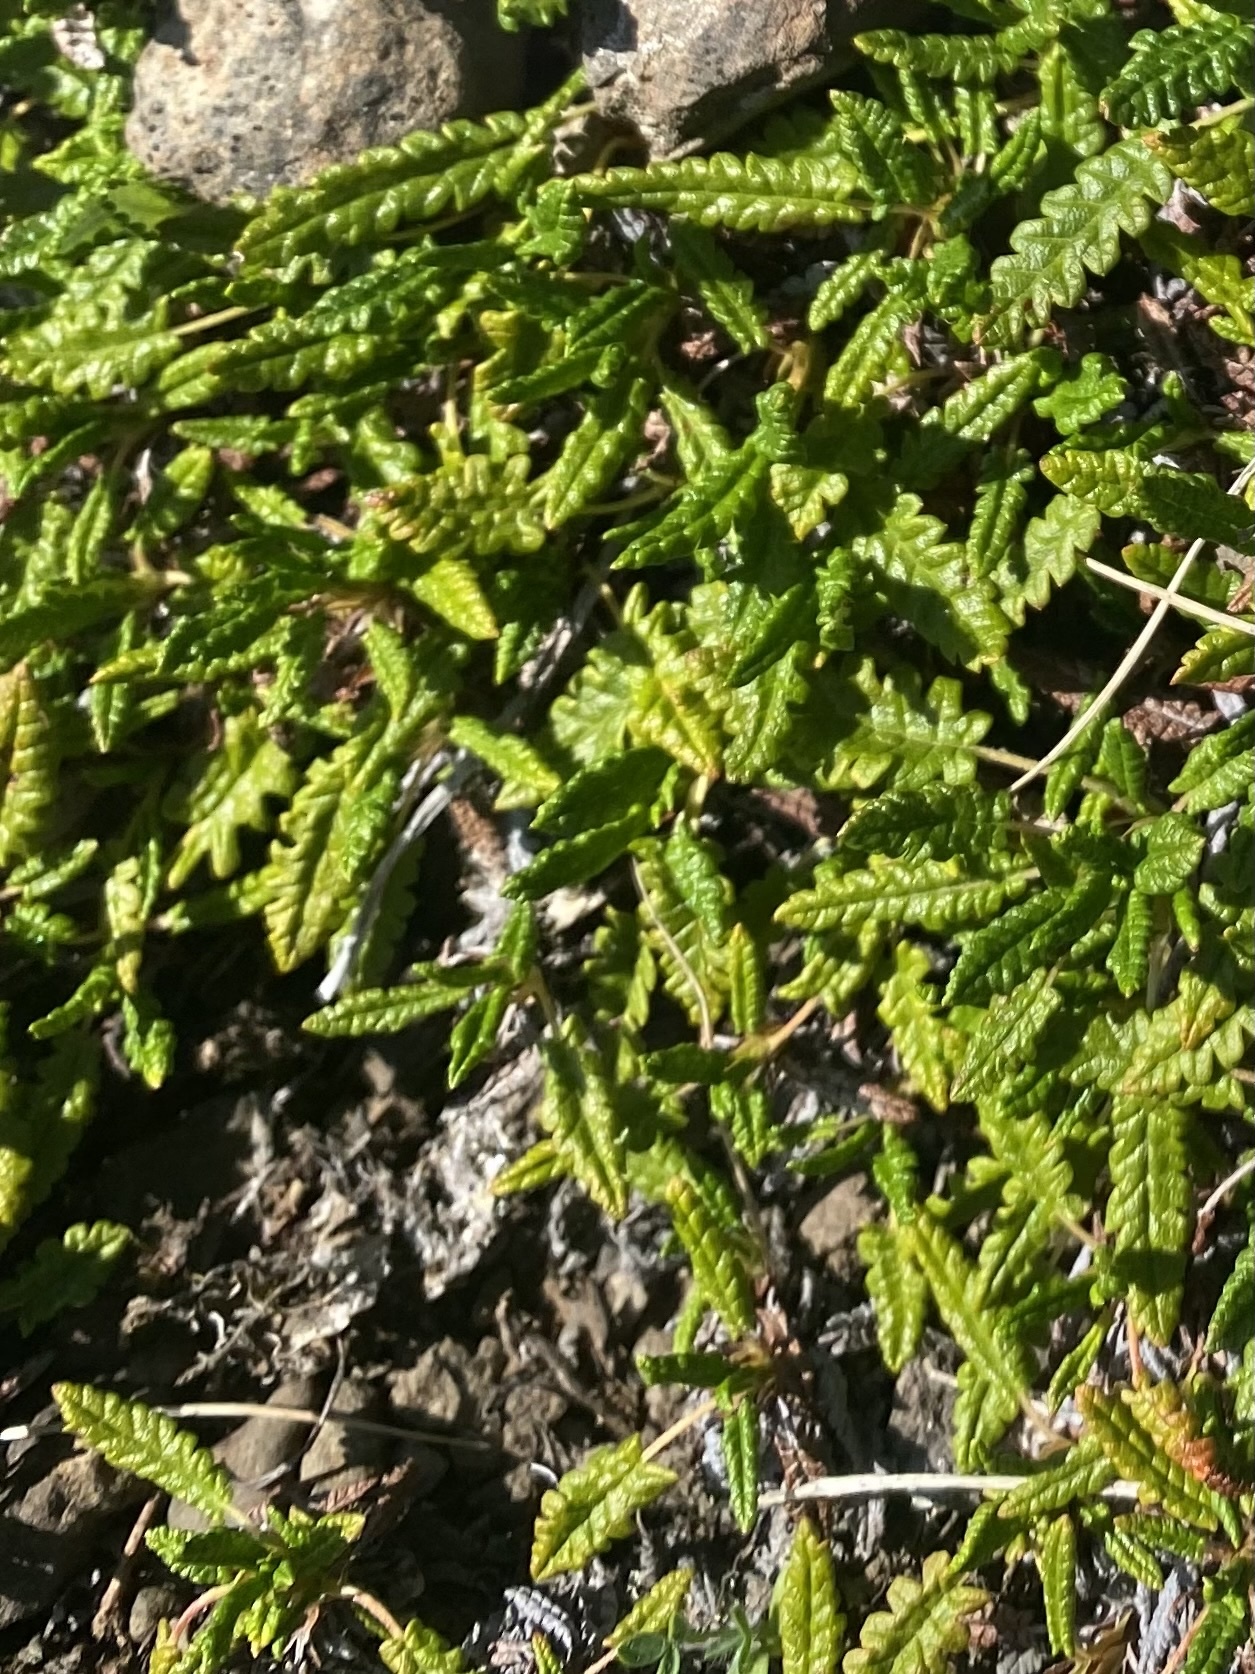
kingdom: Plantae
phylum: Tracheophyta
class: Magnoliopsida
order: Rosales
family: Rosaceae
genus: Dryas
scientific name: Dryas octopetala
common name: Eight-petal mountain-avens
